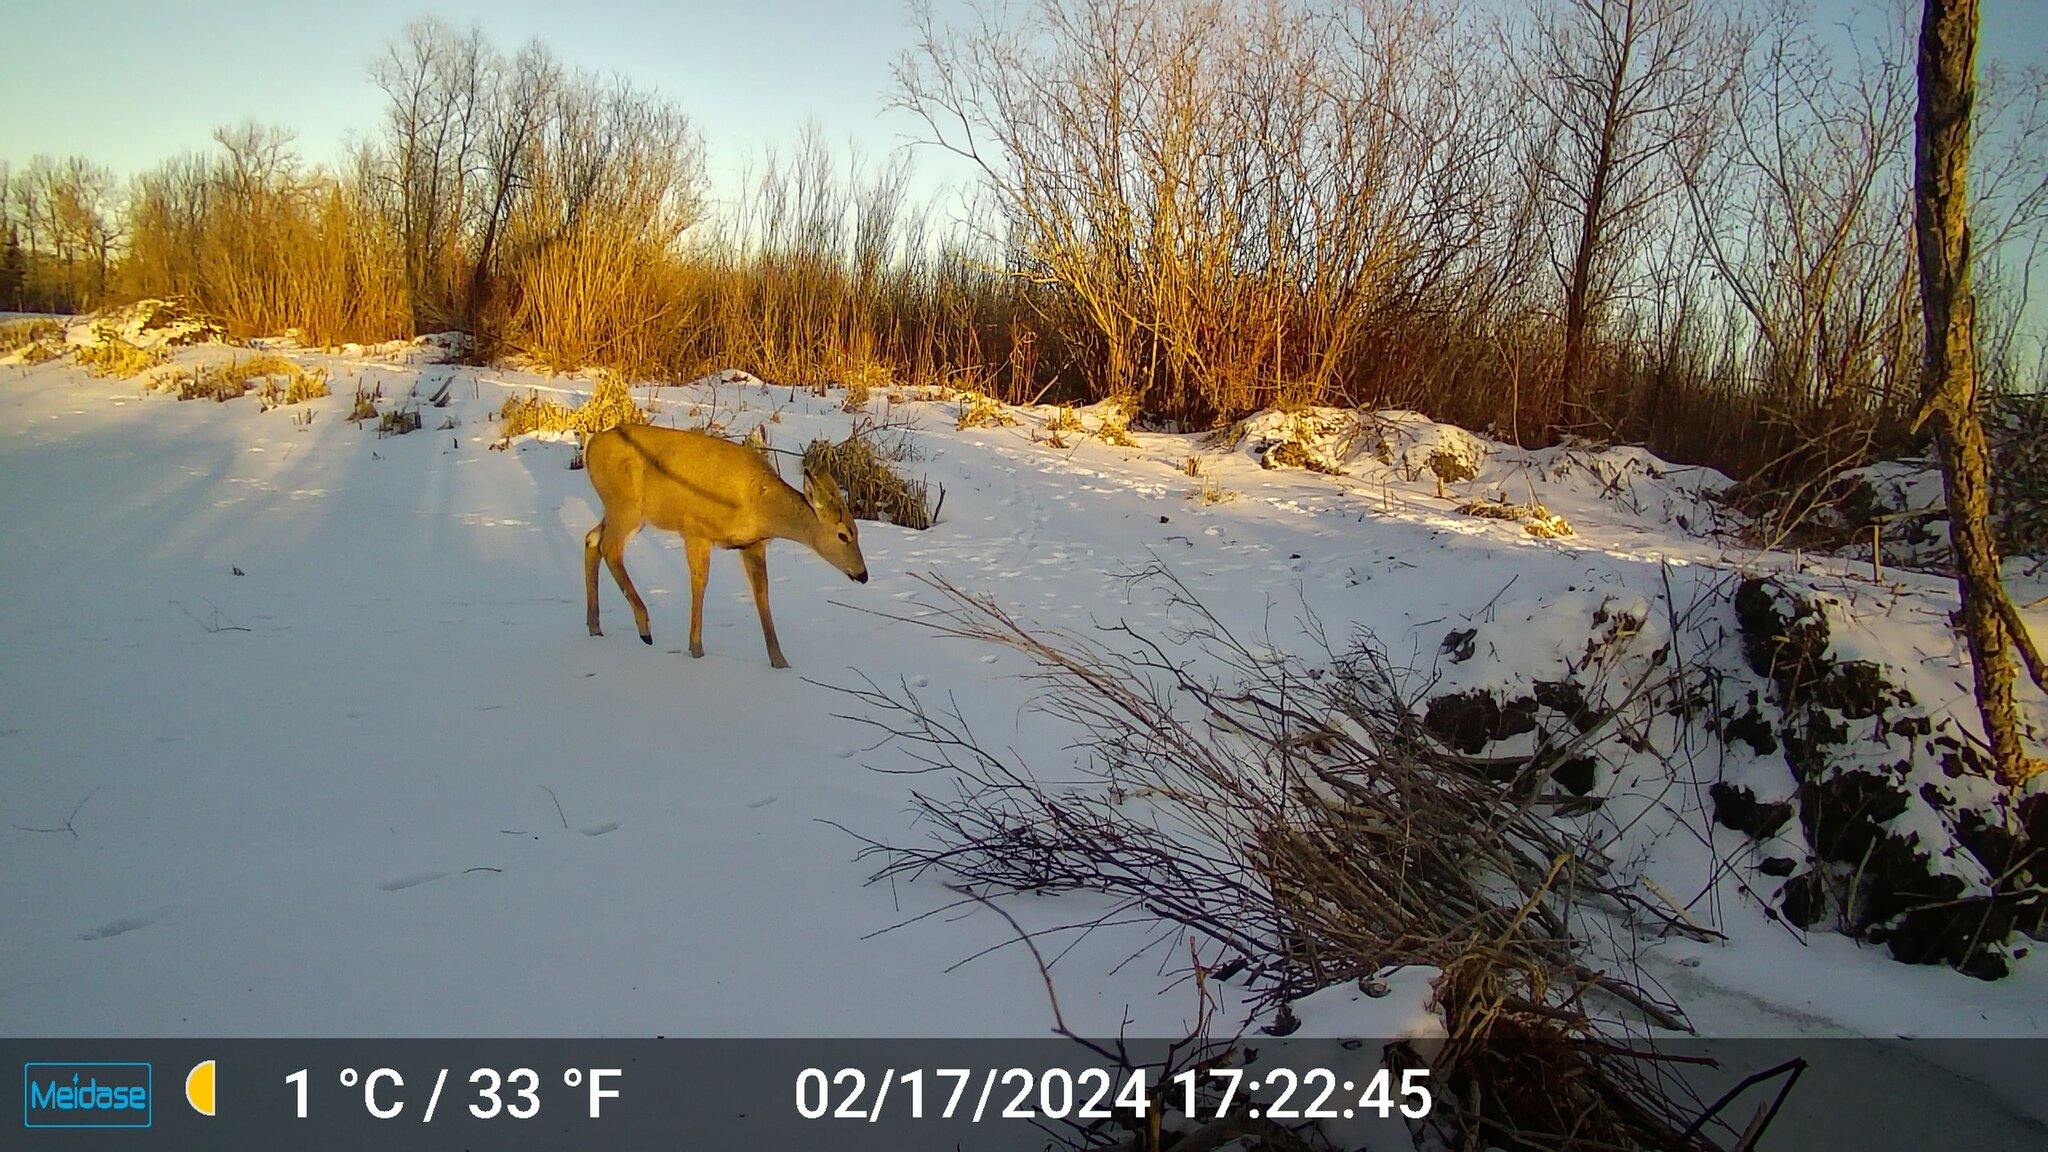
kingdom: Animalia
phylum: Chordata
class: Mammalia
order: Artiodactyla
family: Cervidae
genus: Odocoileus
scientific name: Odocoileus virginianus
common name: White-tailed deer
